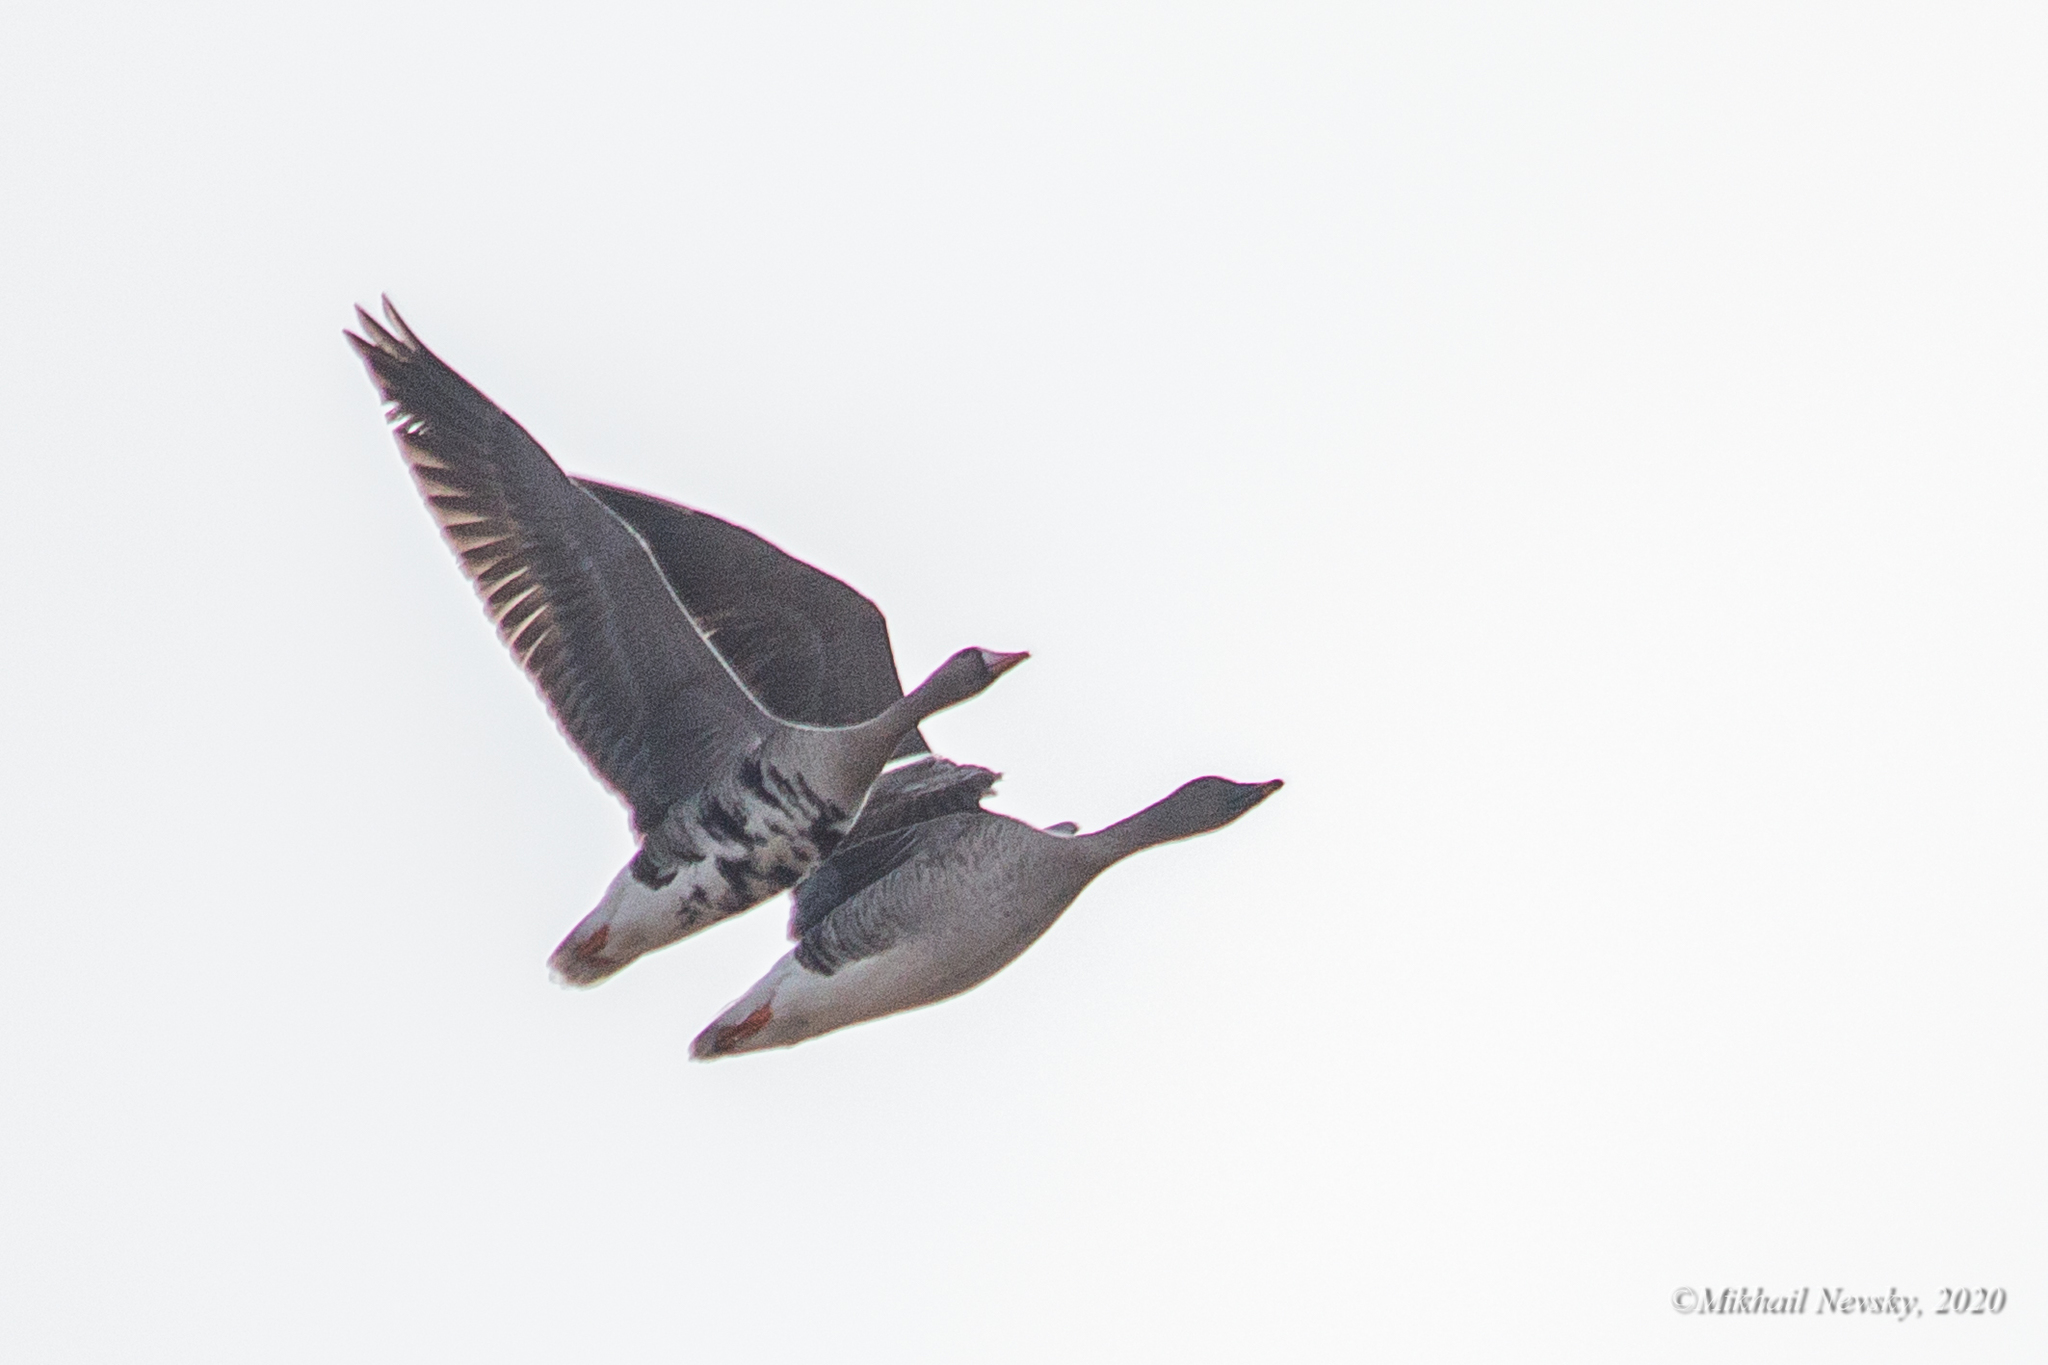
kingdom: Animalia
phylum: Chordata
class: Aves
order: Anseriformes
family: Anatidae
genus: Anser
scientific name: Anser fabalis
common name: Bean goose
